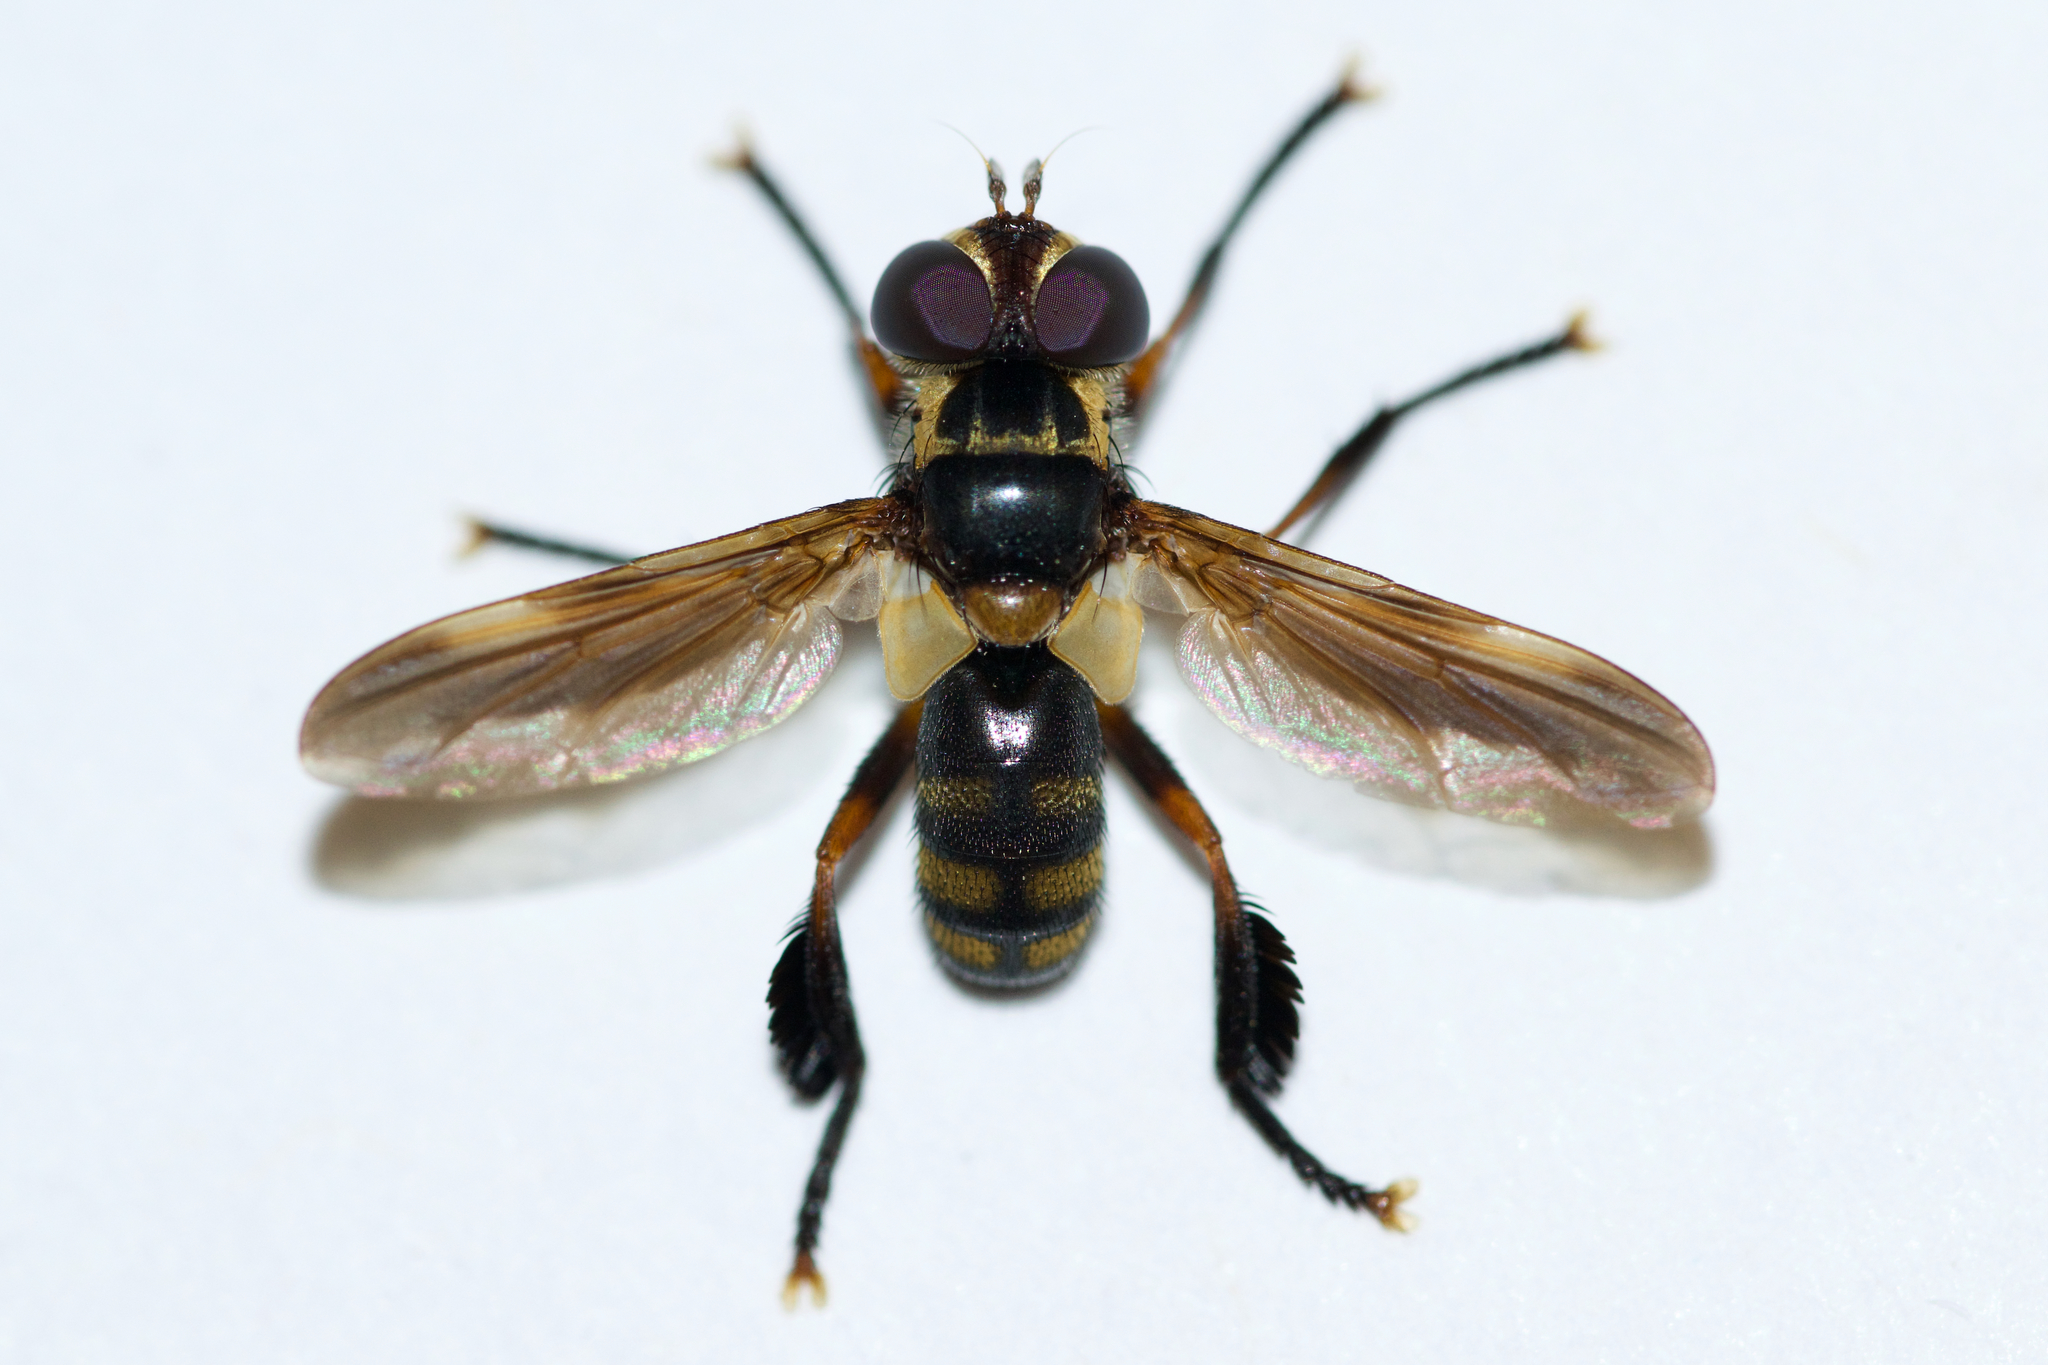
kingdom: Animalia
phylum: Arthropoda
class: Insecta
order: Diptera
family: Tachinidae
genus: Trichopoda
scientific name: Trichopoda plumipes
